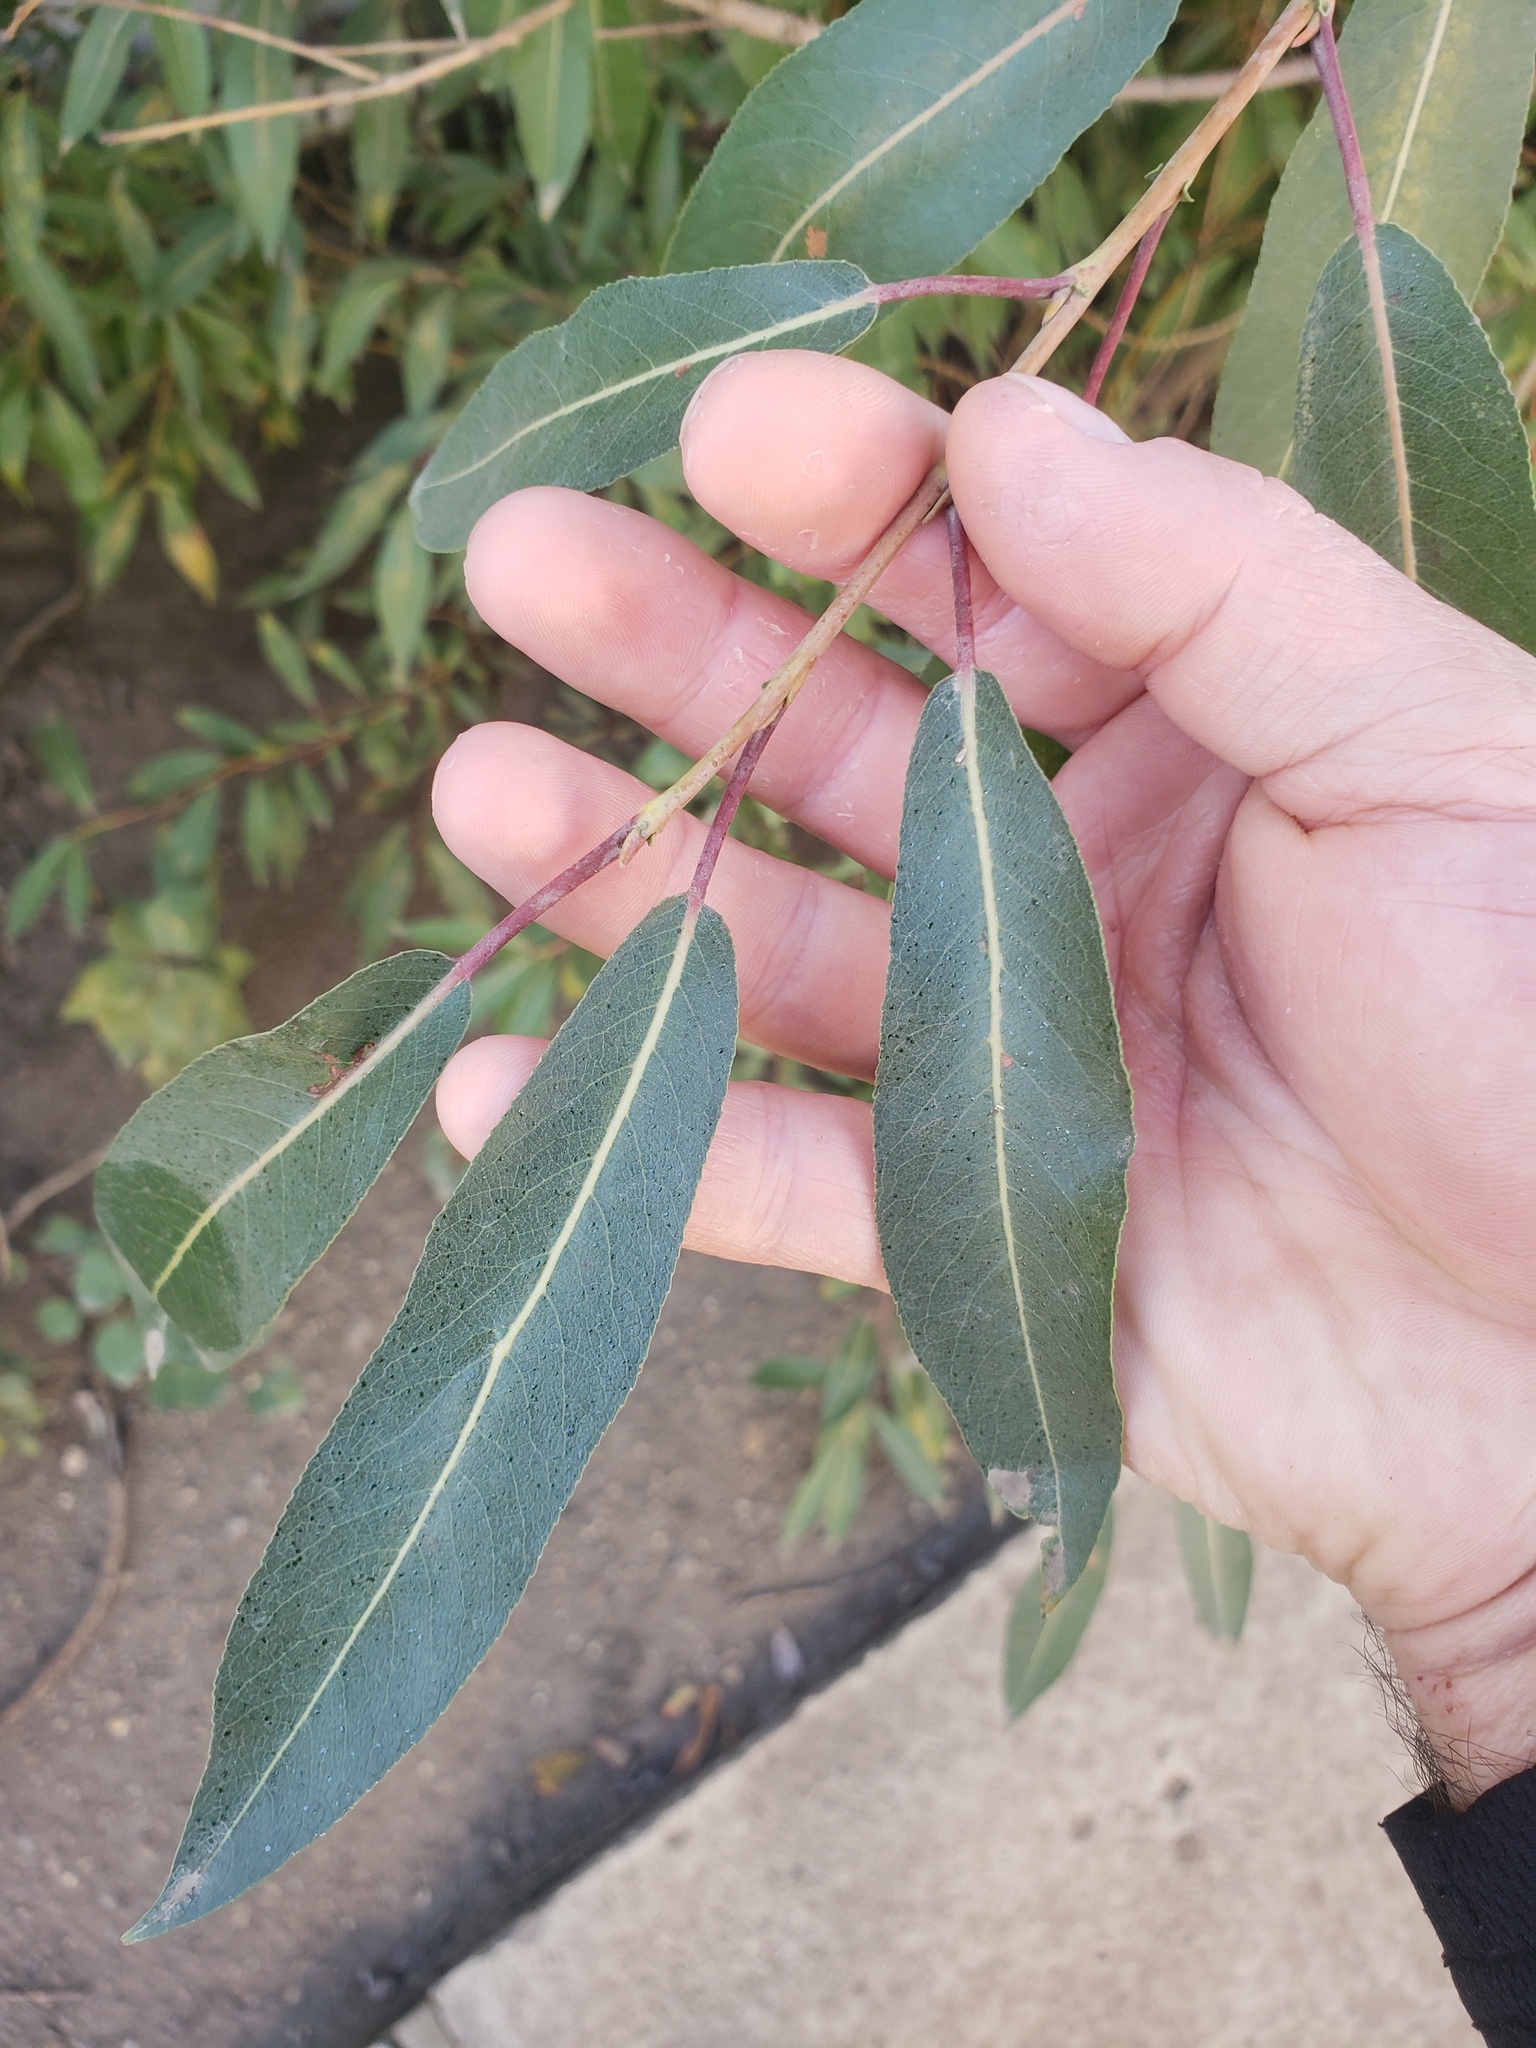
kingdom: Plantae
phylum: Tracheophyta
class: Magnoliopsida
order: Malpighiales
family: Salicaceae
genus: Salix
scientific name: Salix famelica
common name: Hungry willow
